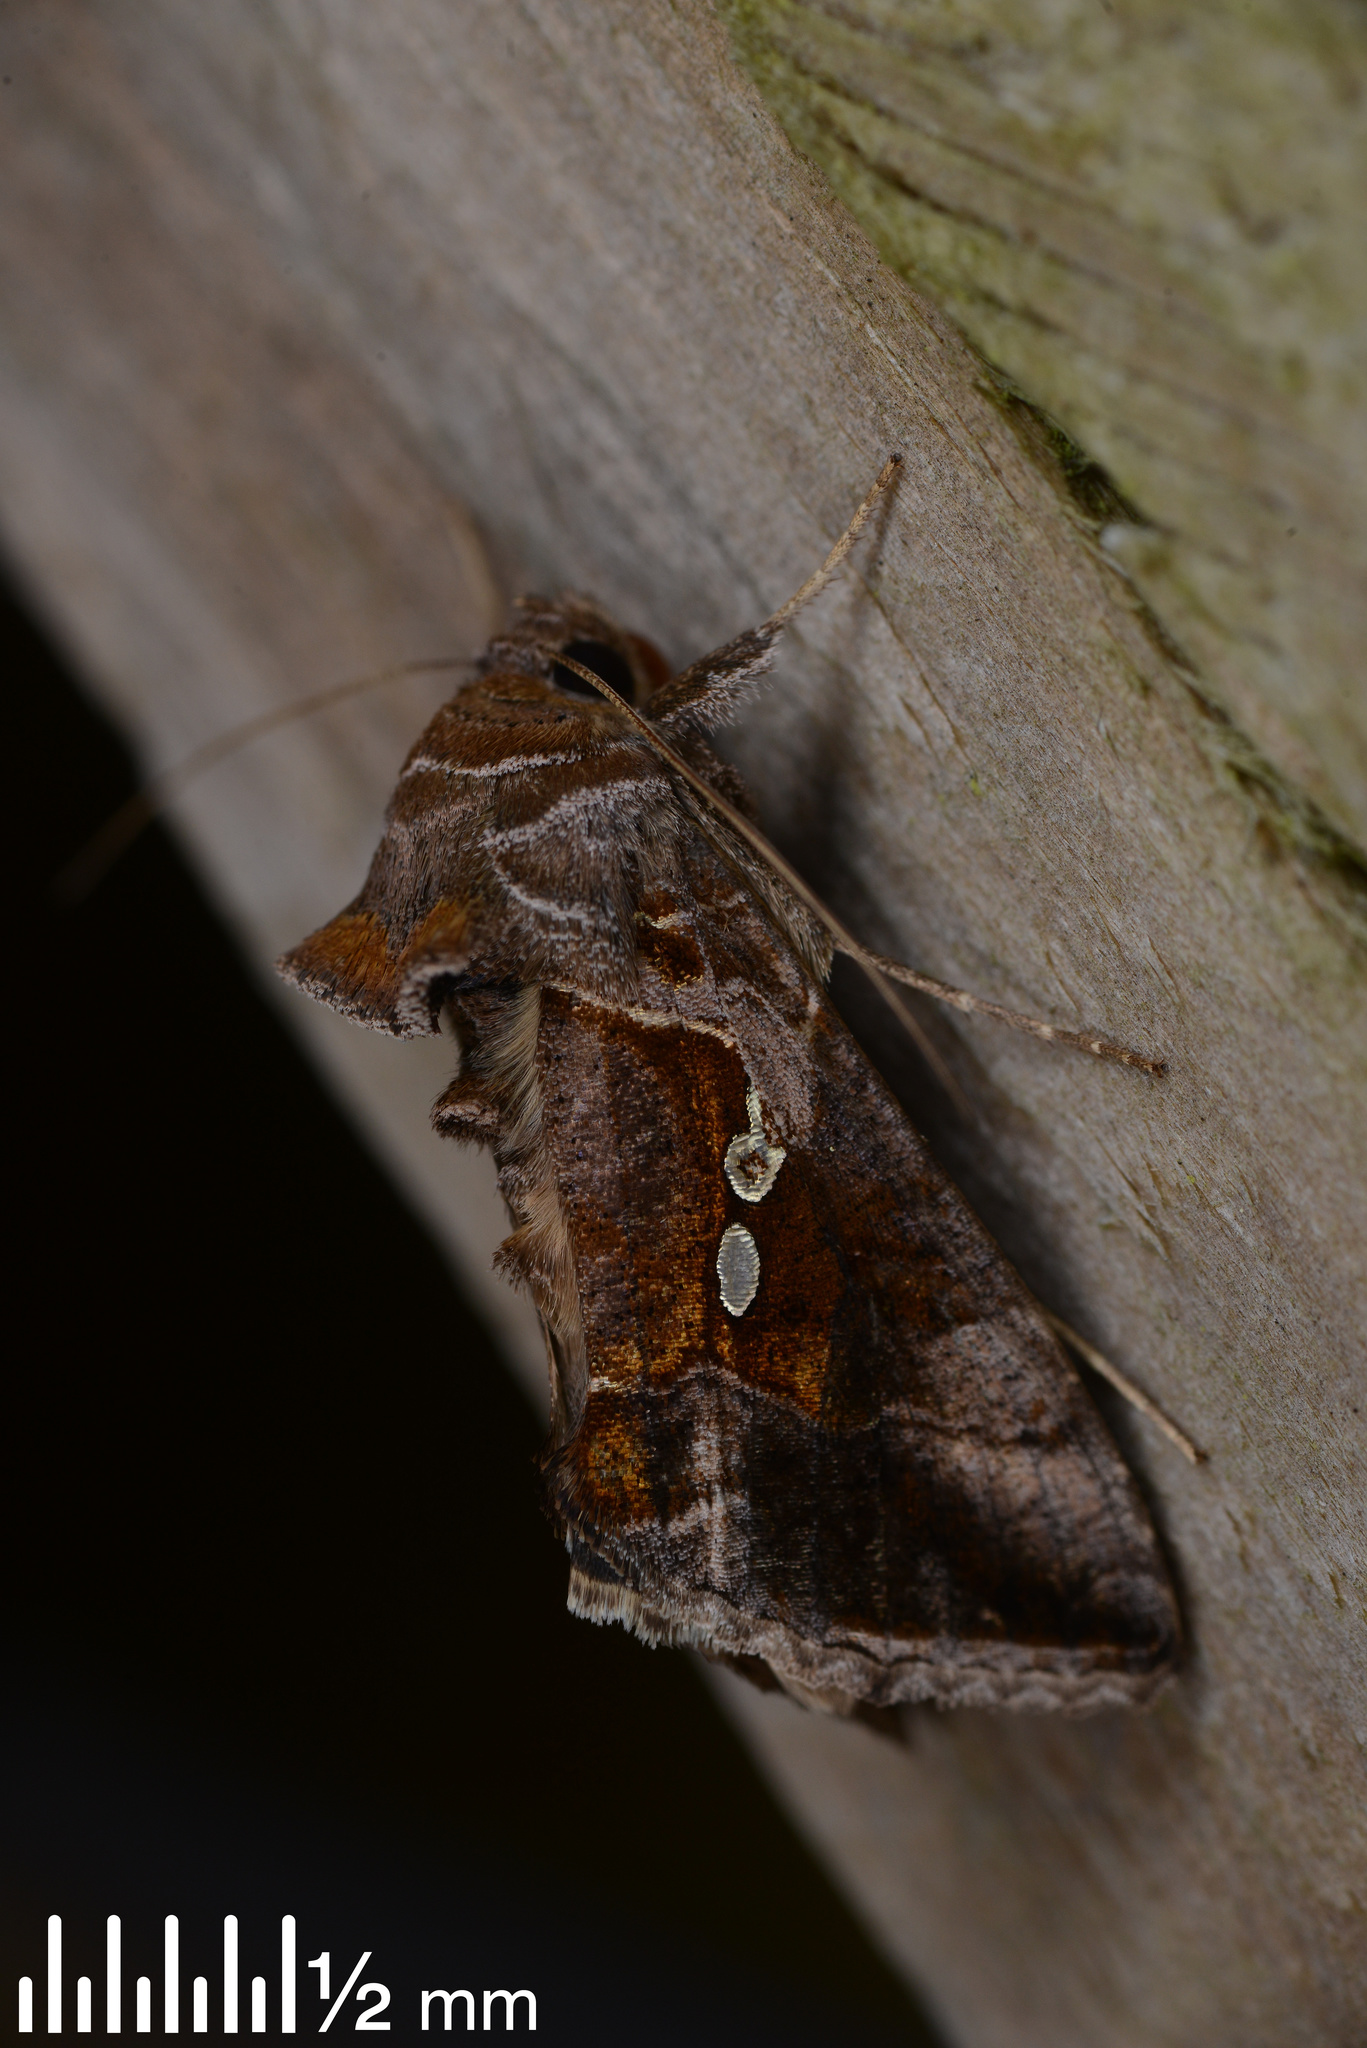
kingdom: Animalia
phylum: Arthropoda
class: Insecta
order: Lepidoptera
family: Noctuidae
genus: Chrysodeixis
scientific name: Chrysodeixis eriosoma
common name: Green garden looper
